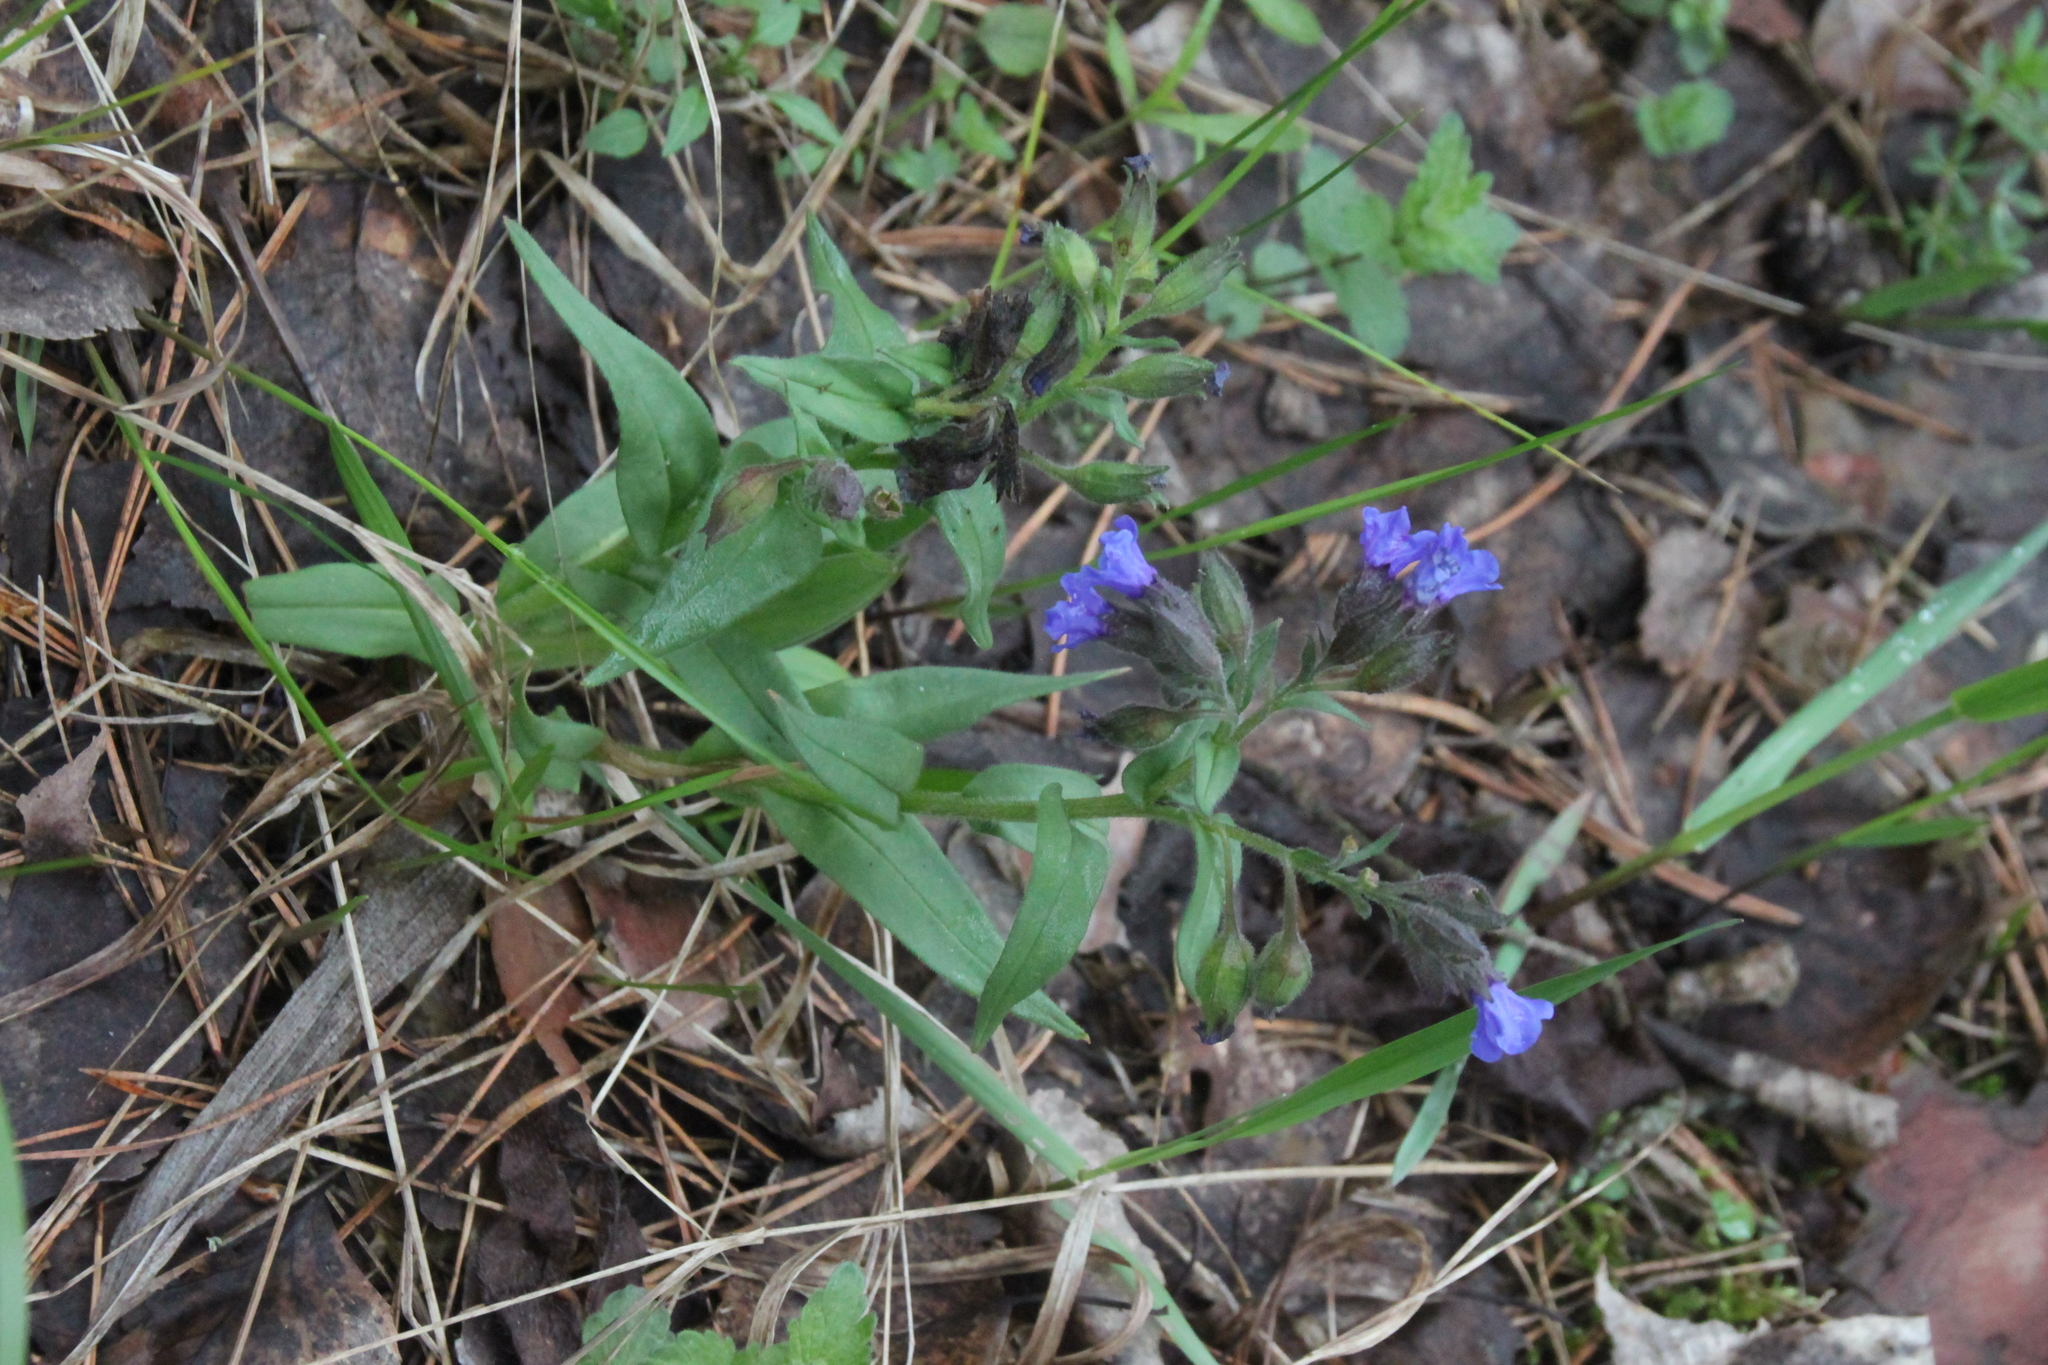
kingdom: Plantae
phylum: Tracheophyta
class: Magnoliopsida
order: Boraginales
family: Boraginaceae
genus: Pulmonaria
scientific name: Pulmonaria angustifolia
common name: Blue cowslip
